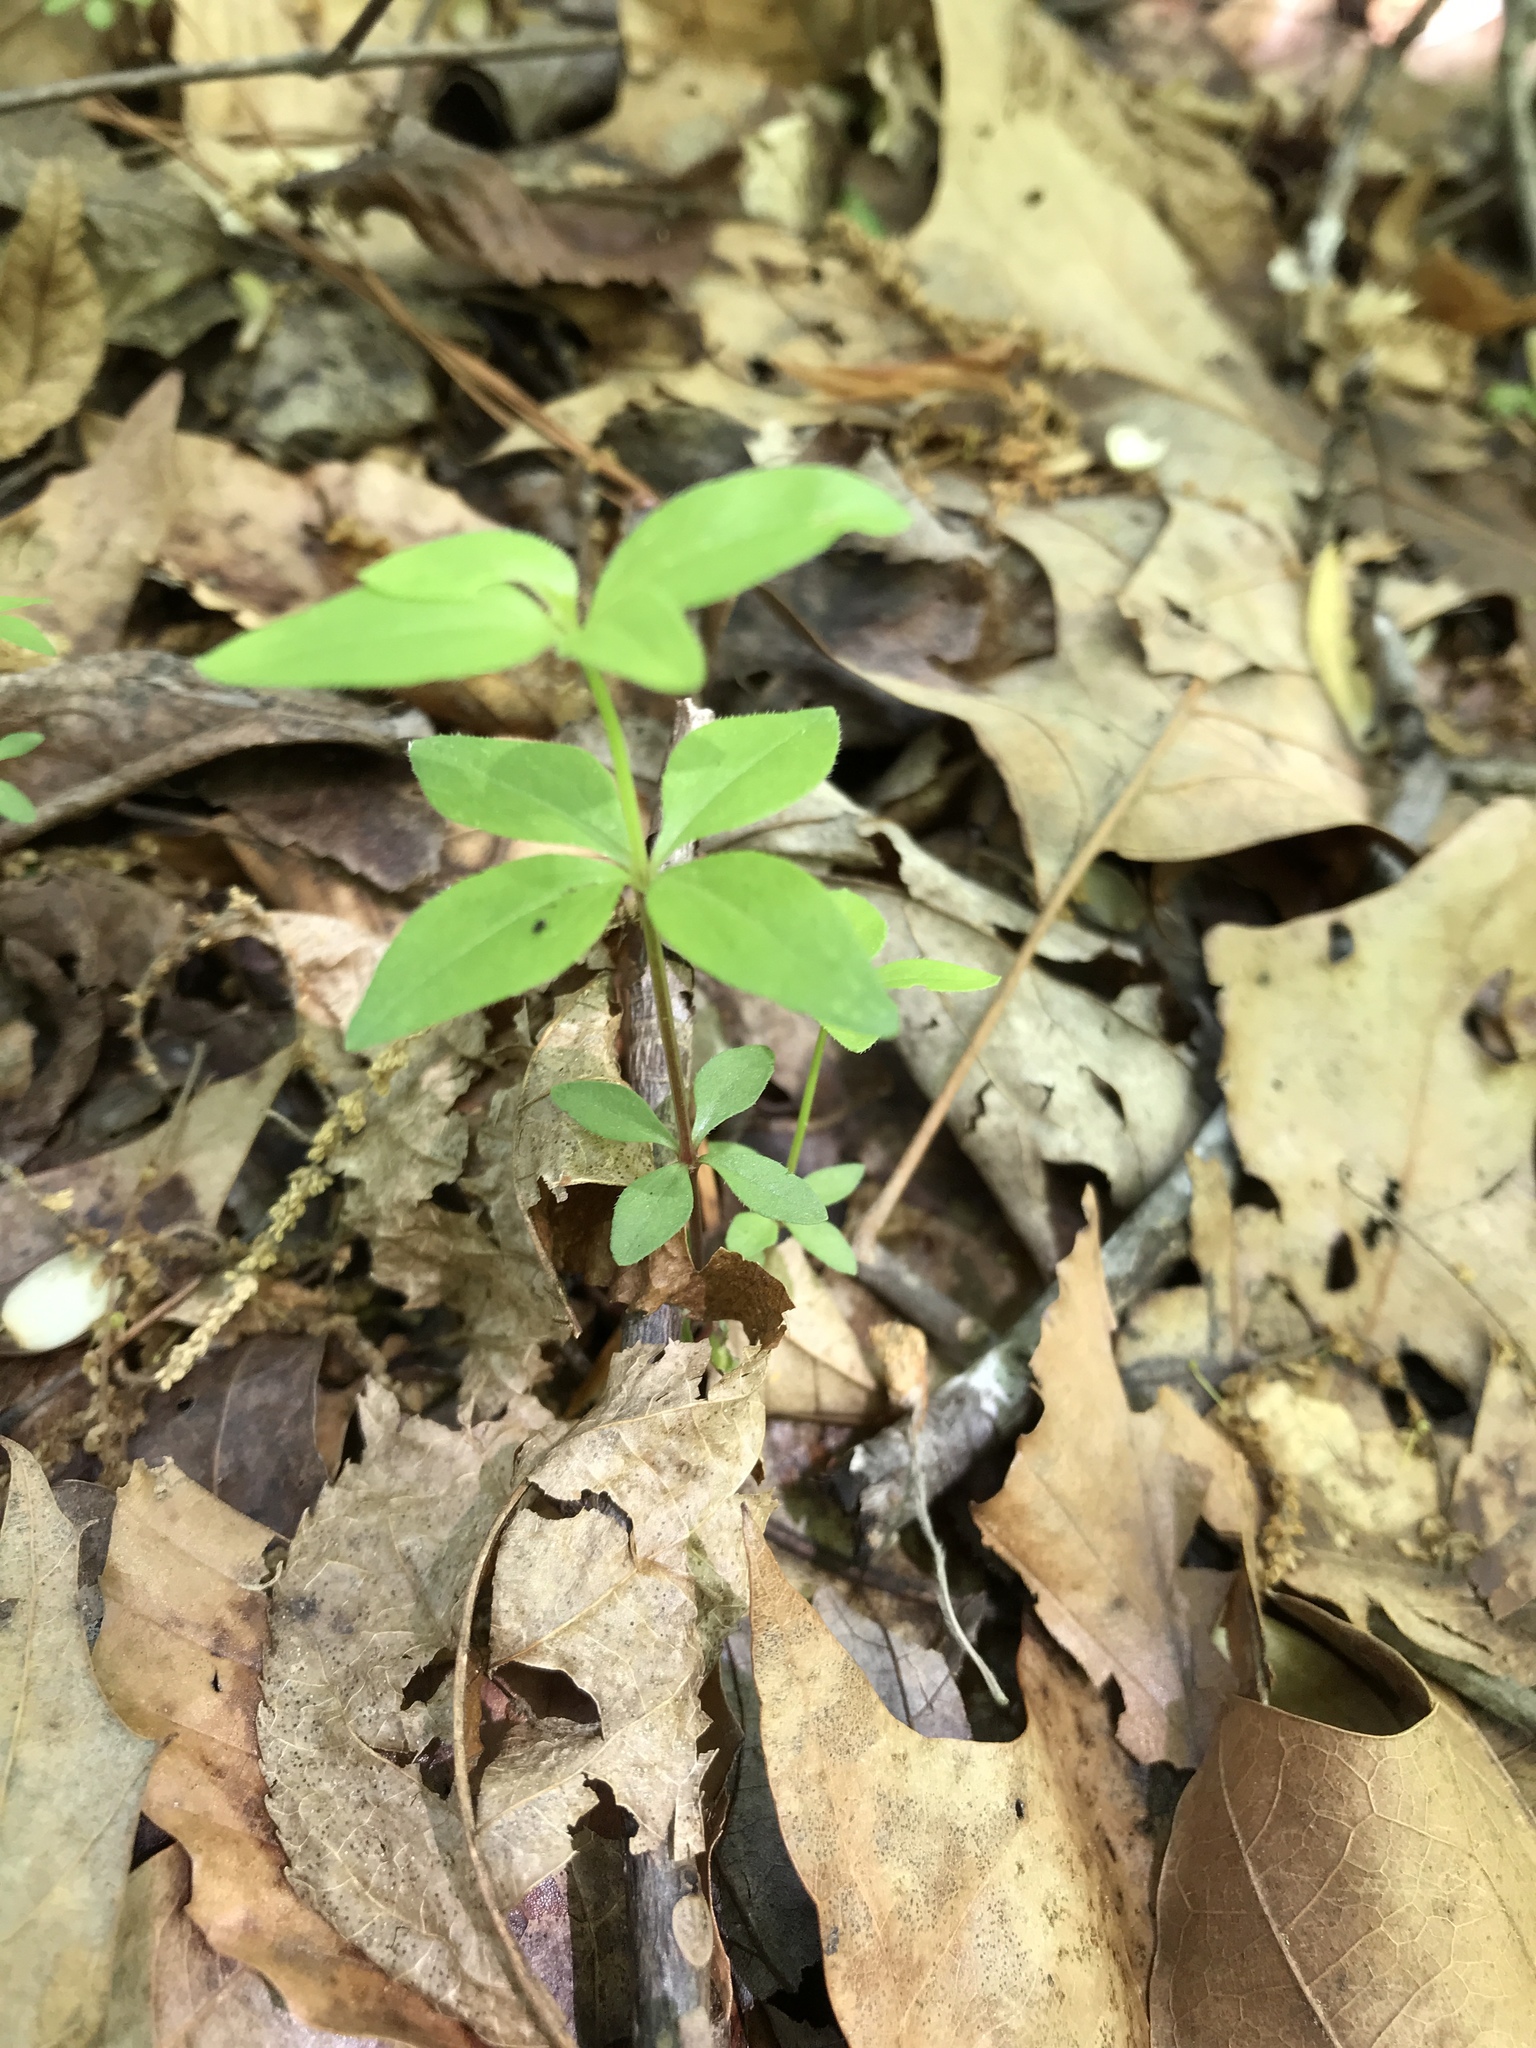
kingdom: Plantae
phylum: Tracheophyta
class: Magnoliopsida
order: Gentianales
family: Rubiaceae
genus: Galium
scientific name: Galium circaezans
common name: Forest bedstraw
